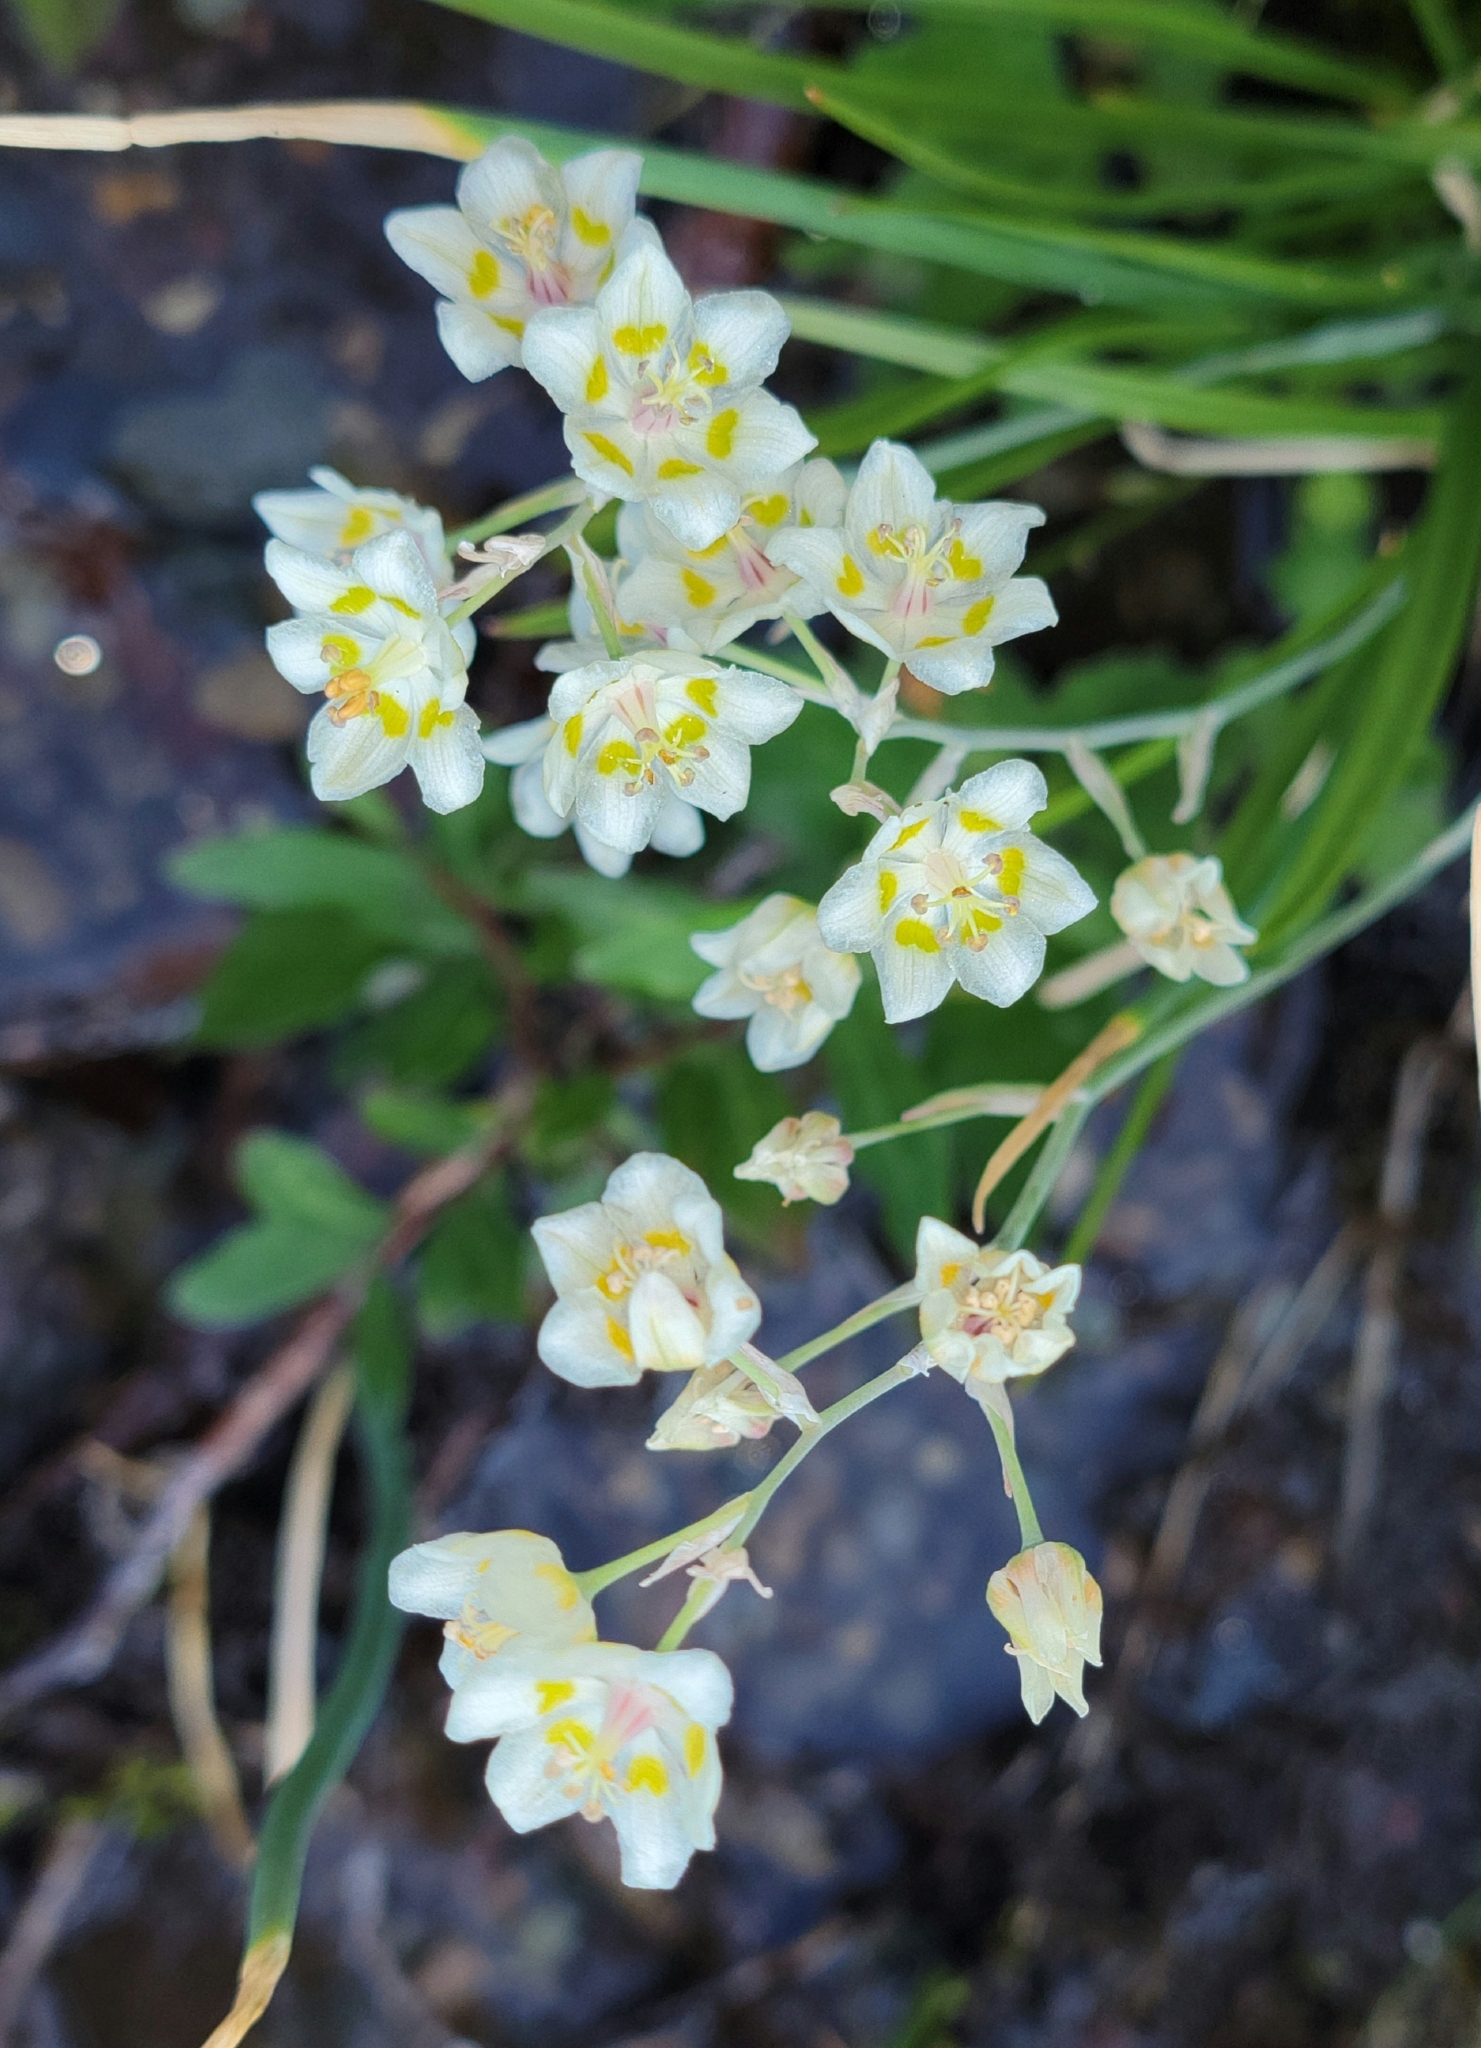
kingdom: Plantae
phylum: Tracheophyta
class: Liliopsida
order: Liliales
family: Melanthiaceae
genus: Anticlea
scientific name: Anticlea elegans
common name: Mountain death camas
